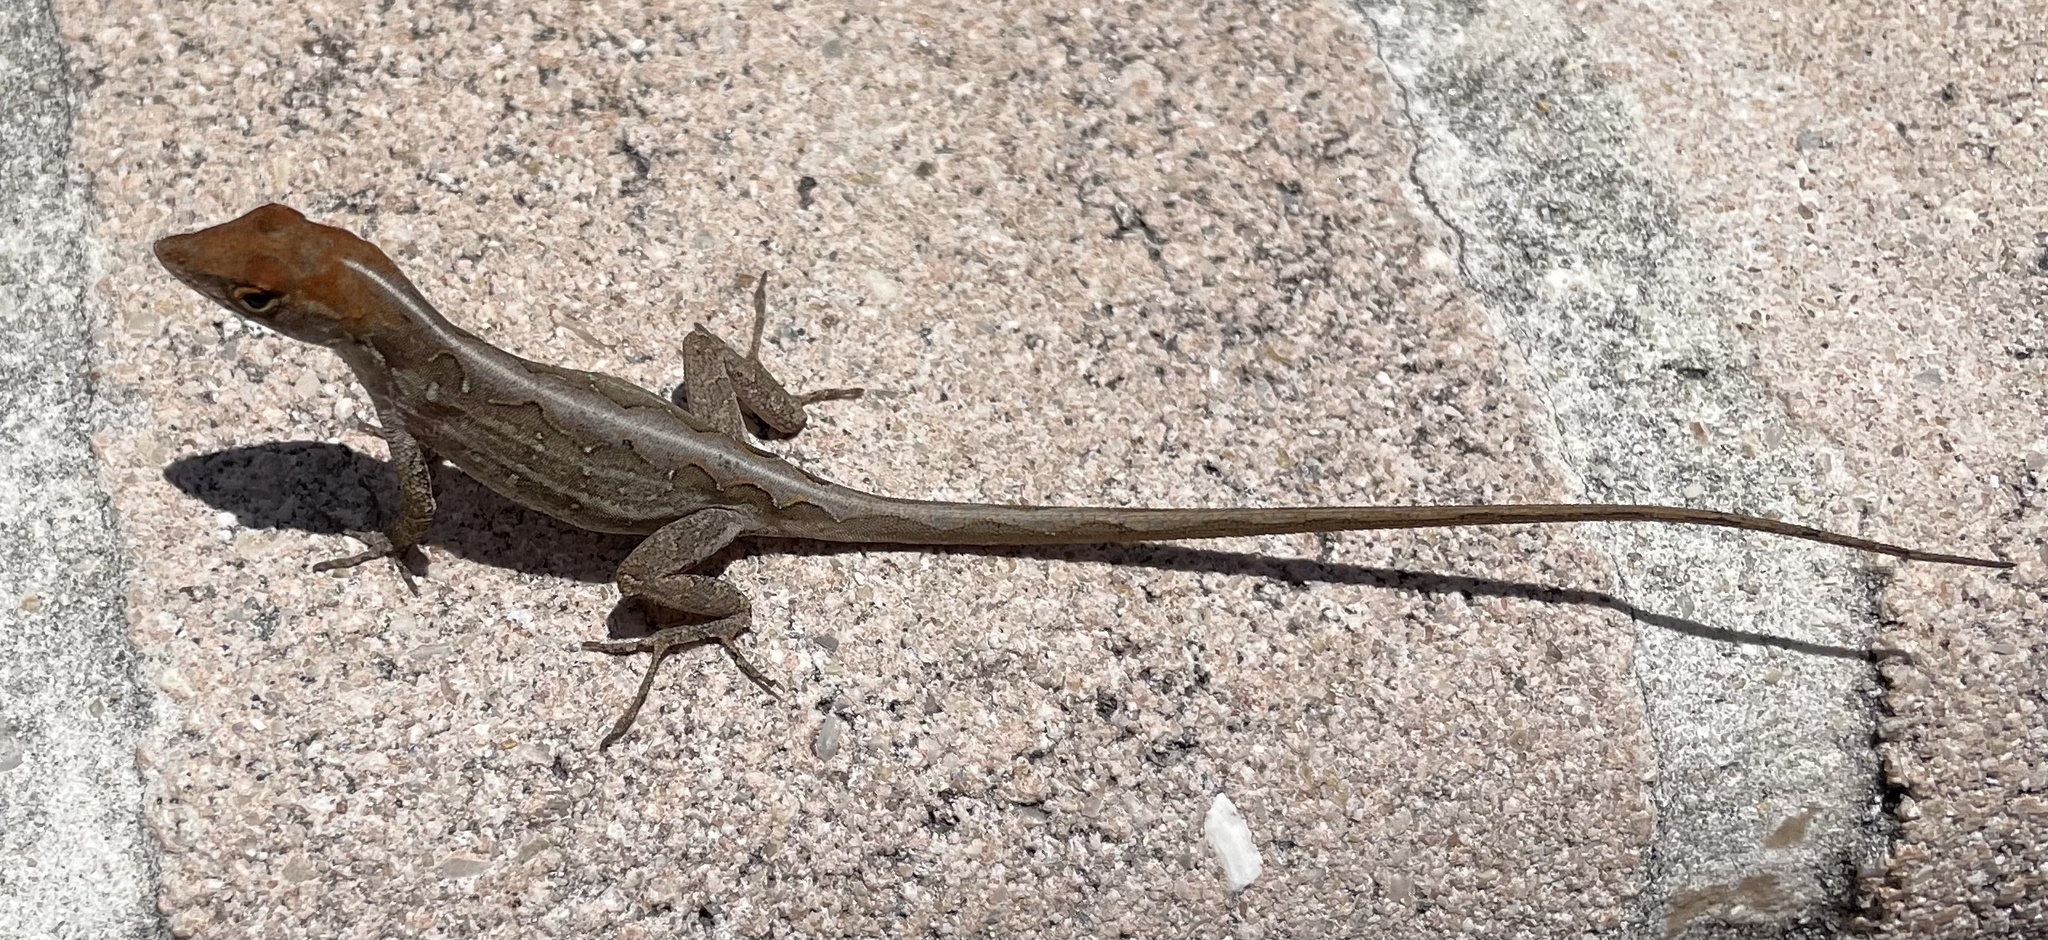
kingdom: Animalia
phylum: Chordata
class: Squamata
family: Dactyloidae
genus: Anolis
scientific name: Anolis sagrei
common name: Brown anole
